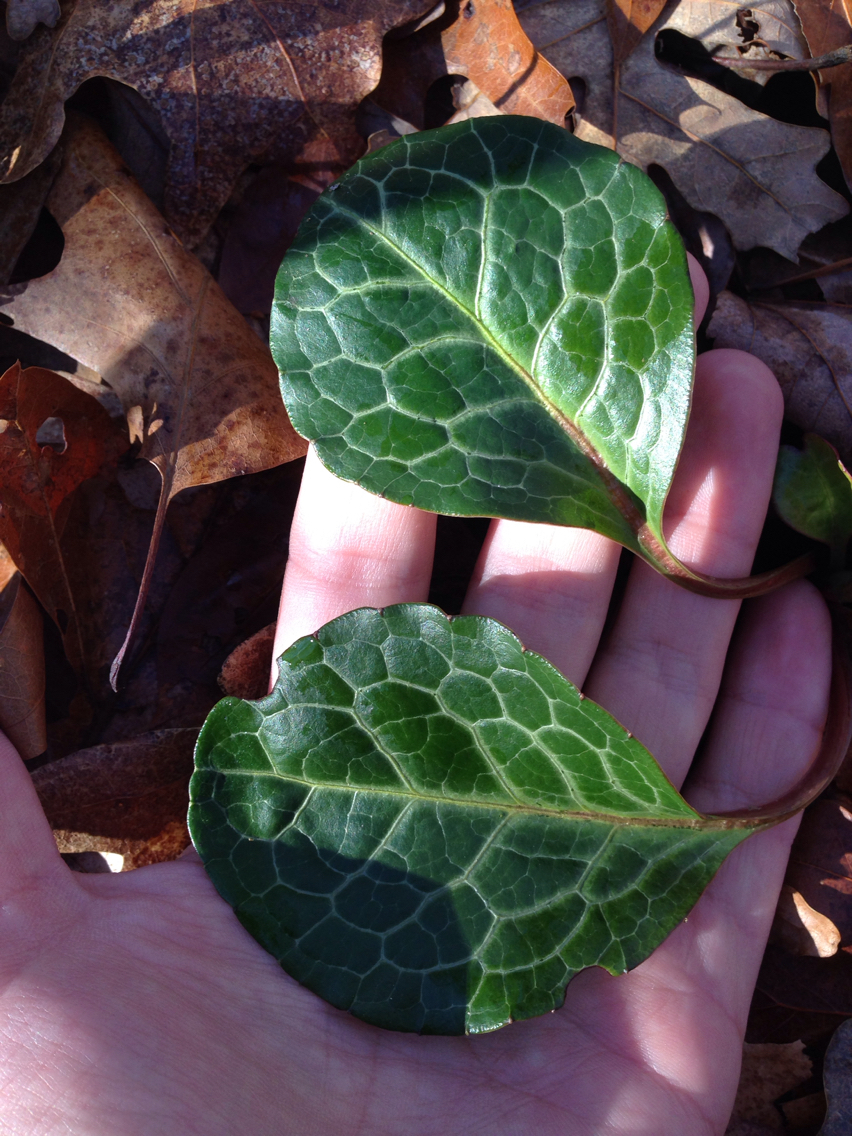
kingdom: Plantae
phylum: Tracheophyta
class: Magnoliopsida
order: Ericales
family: Ericaceae
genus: Pyrola
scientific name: Pyrola americana
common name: American wintergreen
